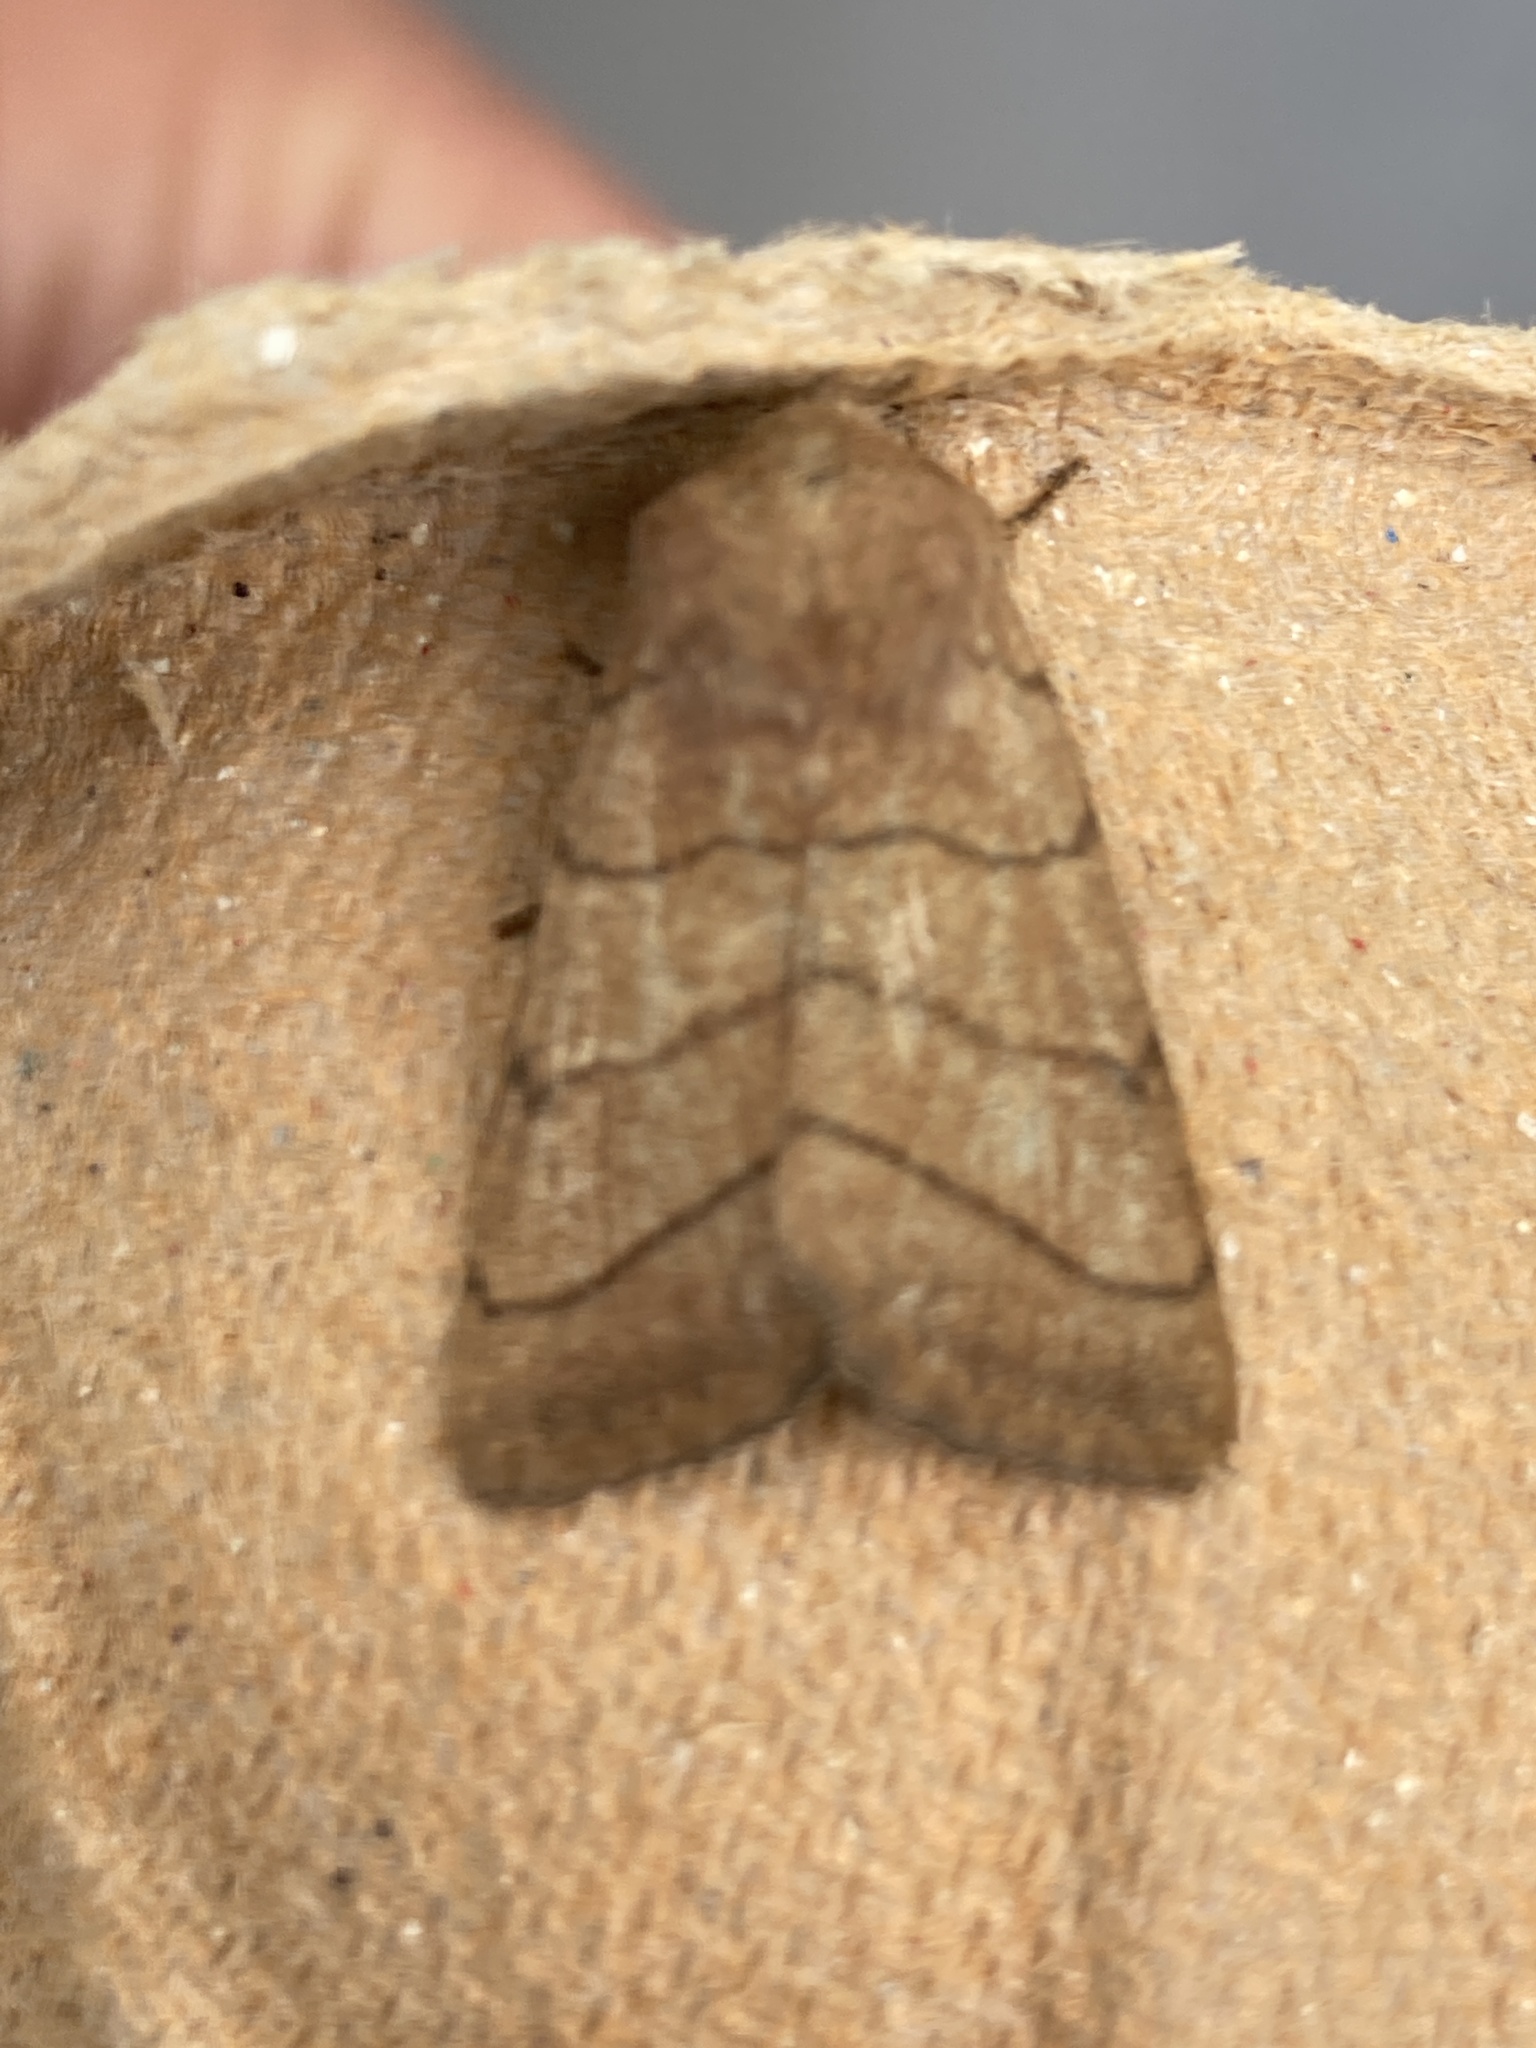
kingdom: Animalia
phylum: Arthropoda
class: Insecta
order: Lepidoptera
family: Noctuidae
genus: Charanyca
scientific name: Charanyca trigrammica
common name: Treble lines
